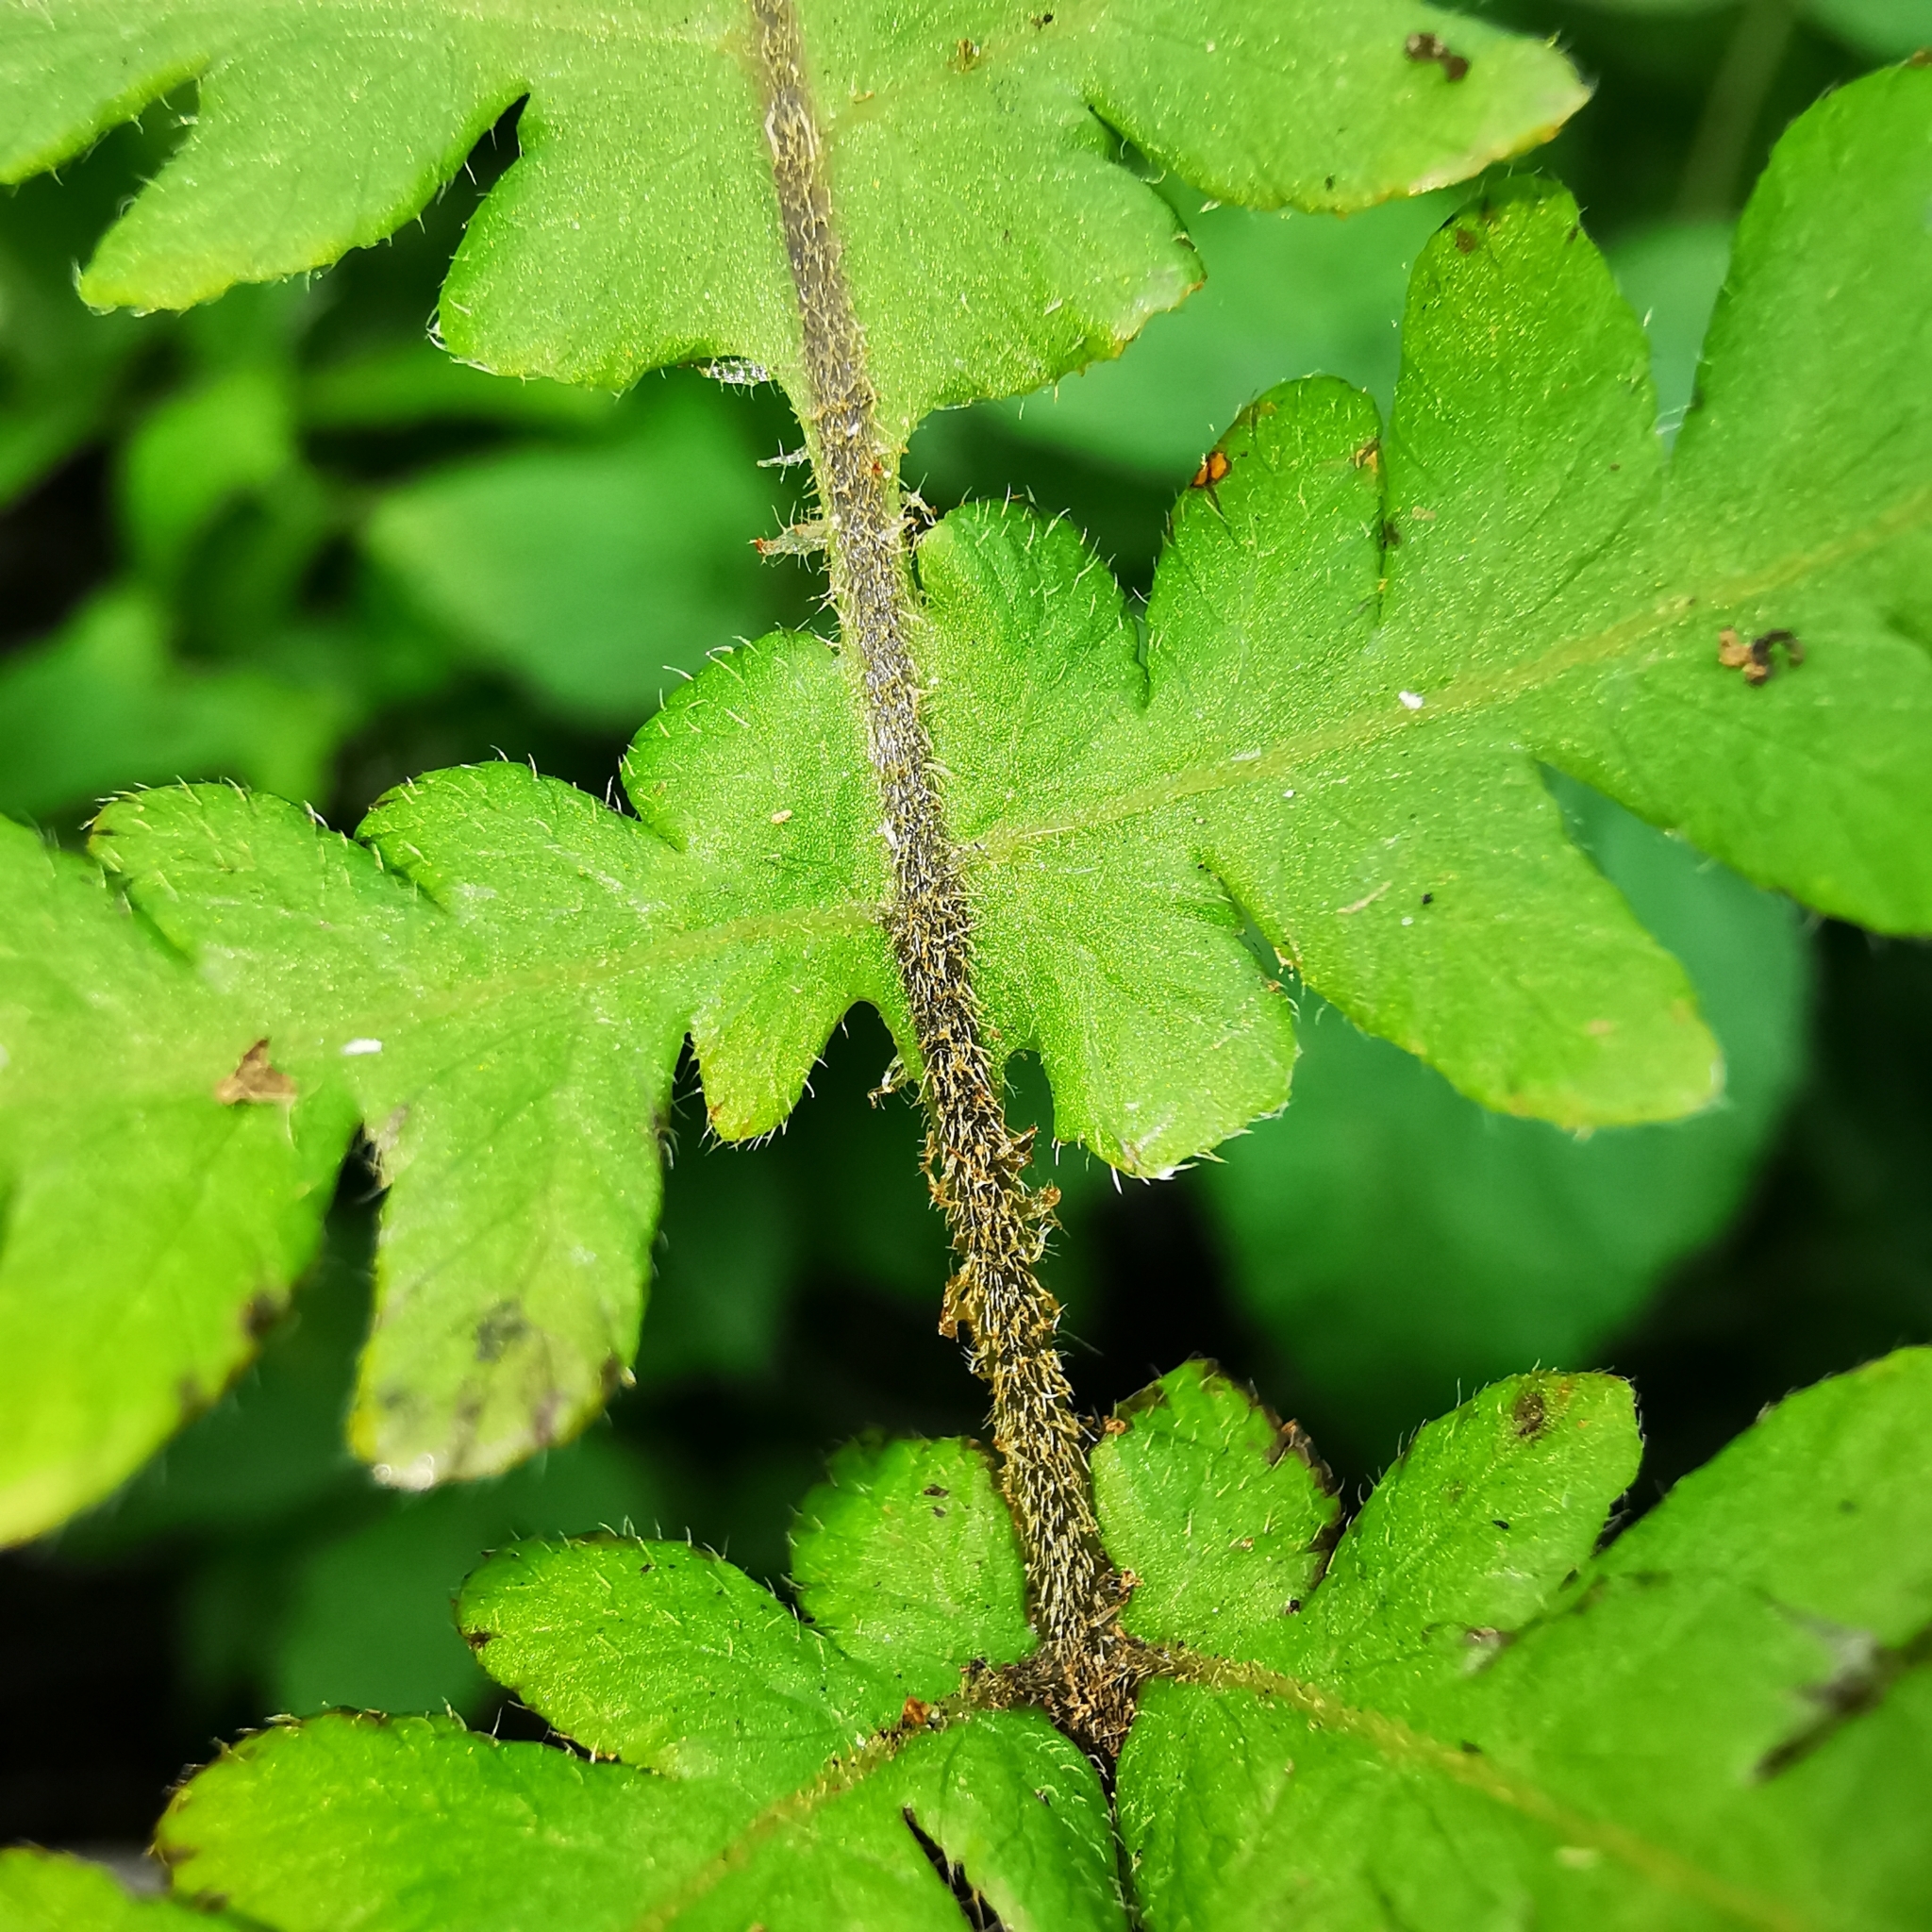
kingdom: Plantae
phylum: Tracheophyta
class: Polypodiopsida
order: Polypodiales
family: Thelypteridaceae
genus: Phegopteris
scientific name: Phegopteris connectilis
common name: Beech fern
